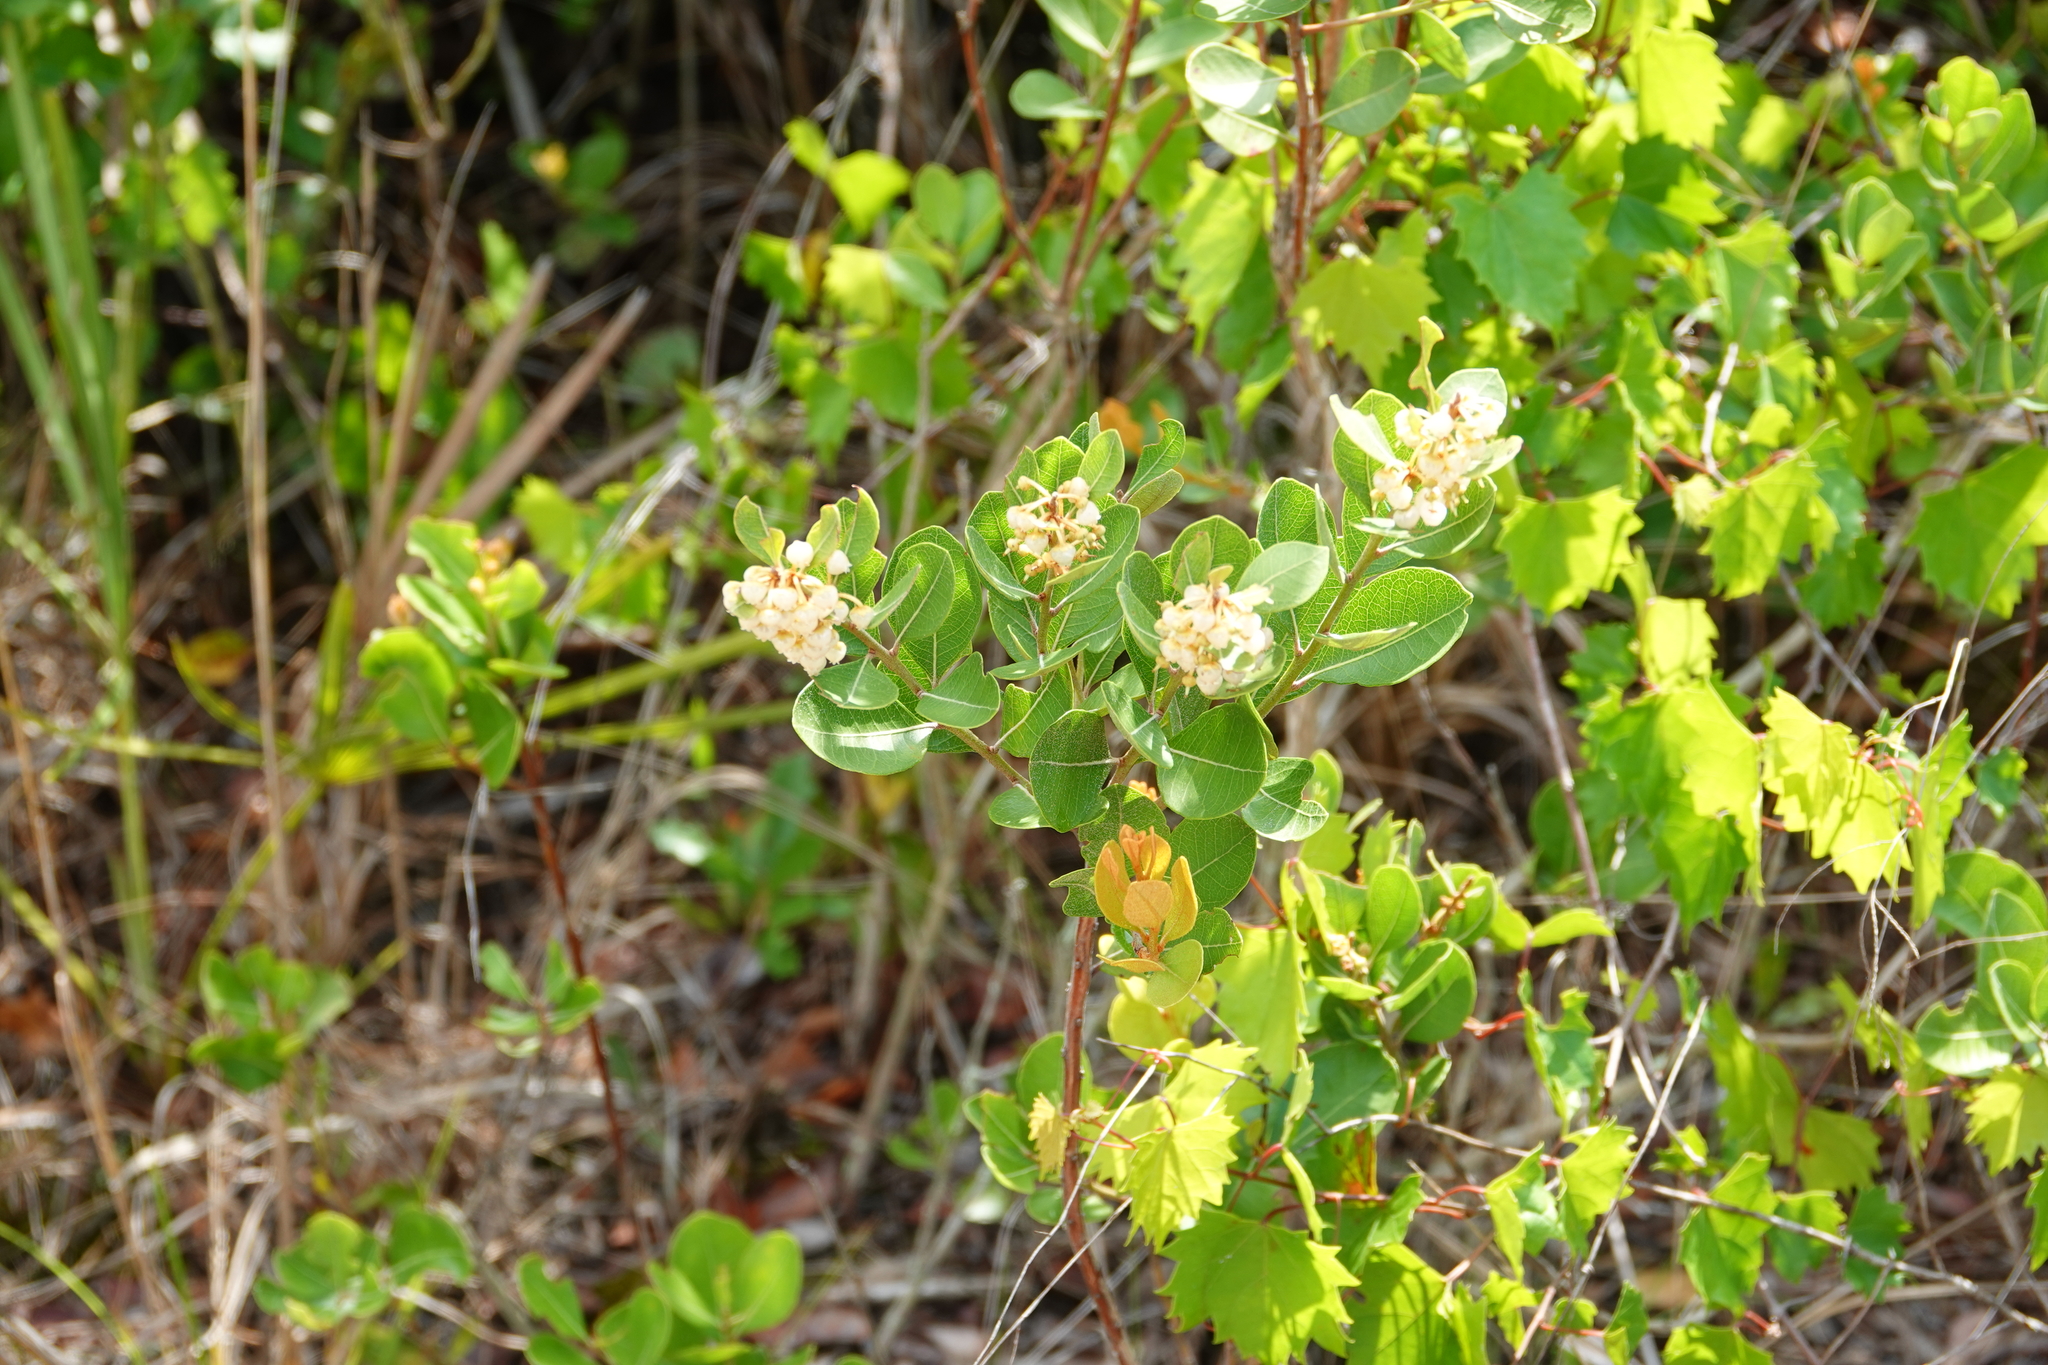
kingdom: Plantae
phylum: Tracheophyta
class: Magnoliopsida
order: Ericales
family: Ericaceae
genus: Lyonia
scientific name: Lyonia fruticosa
